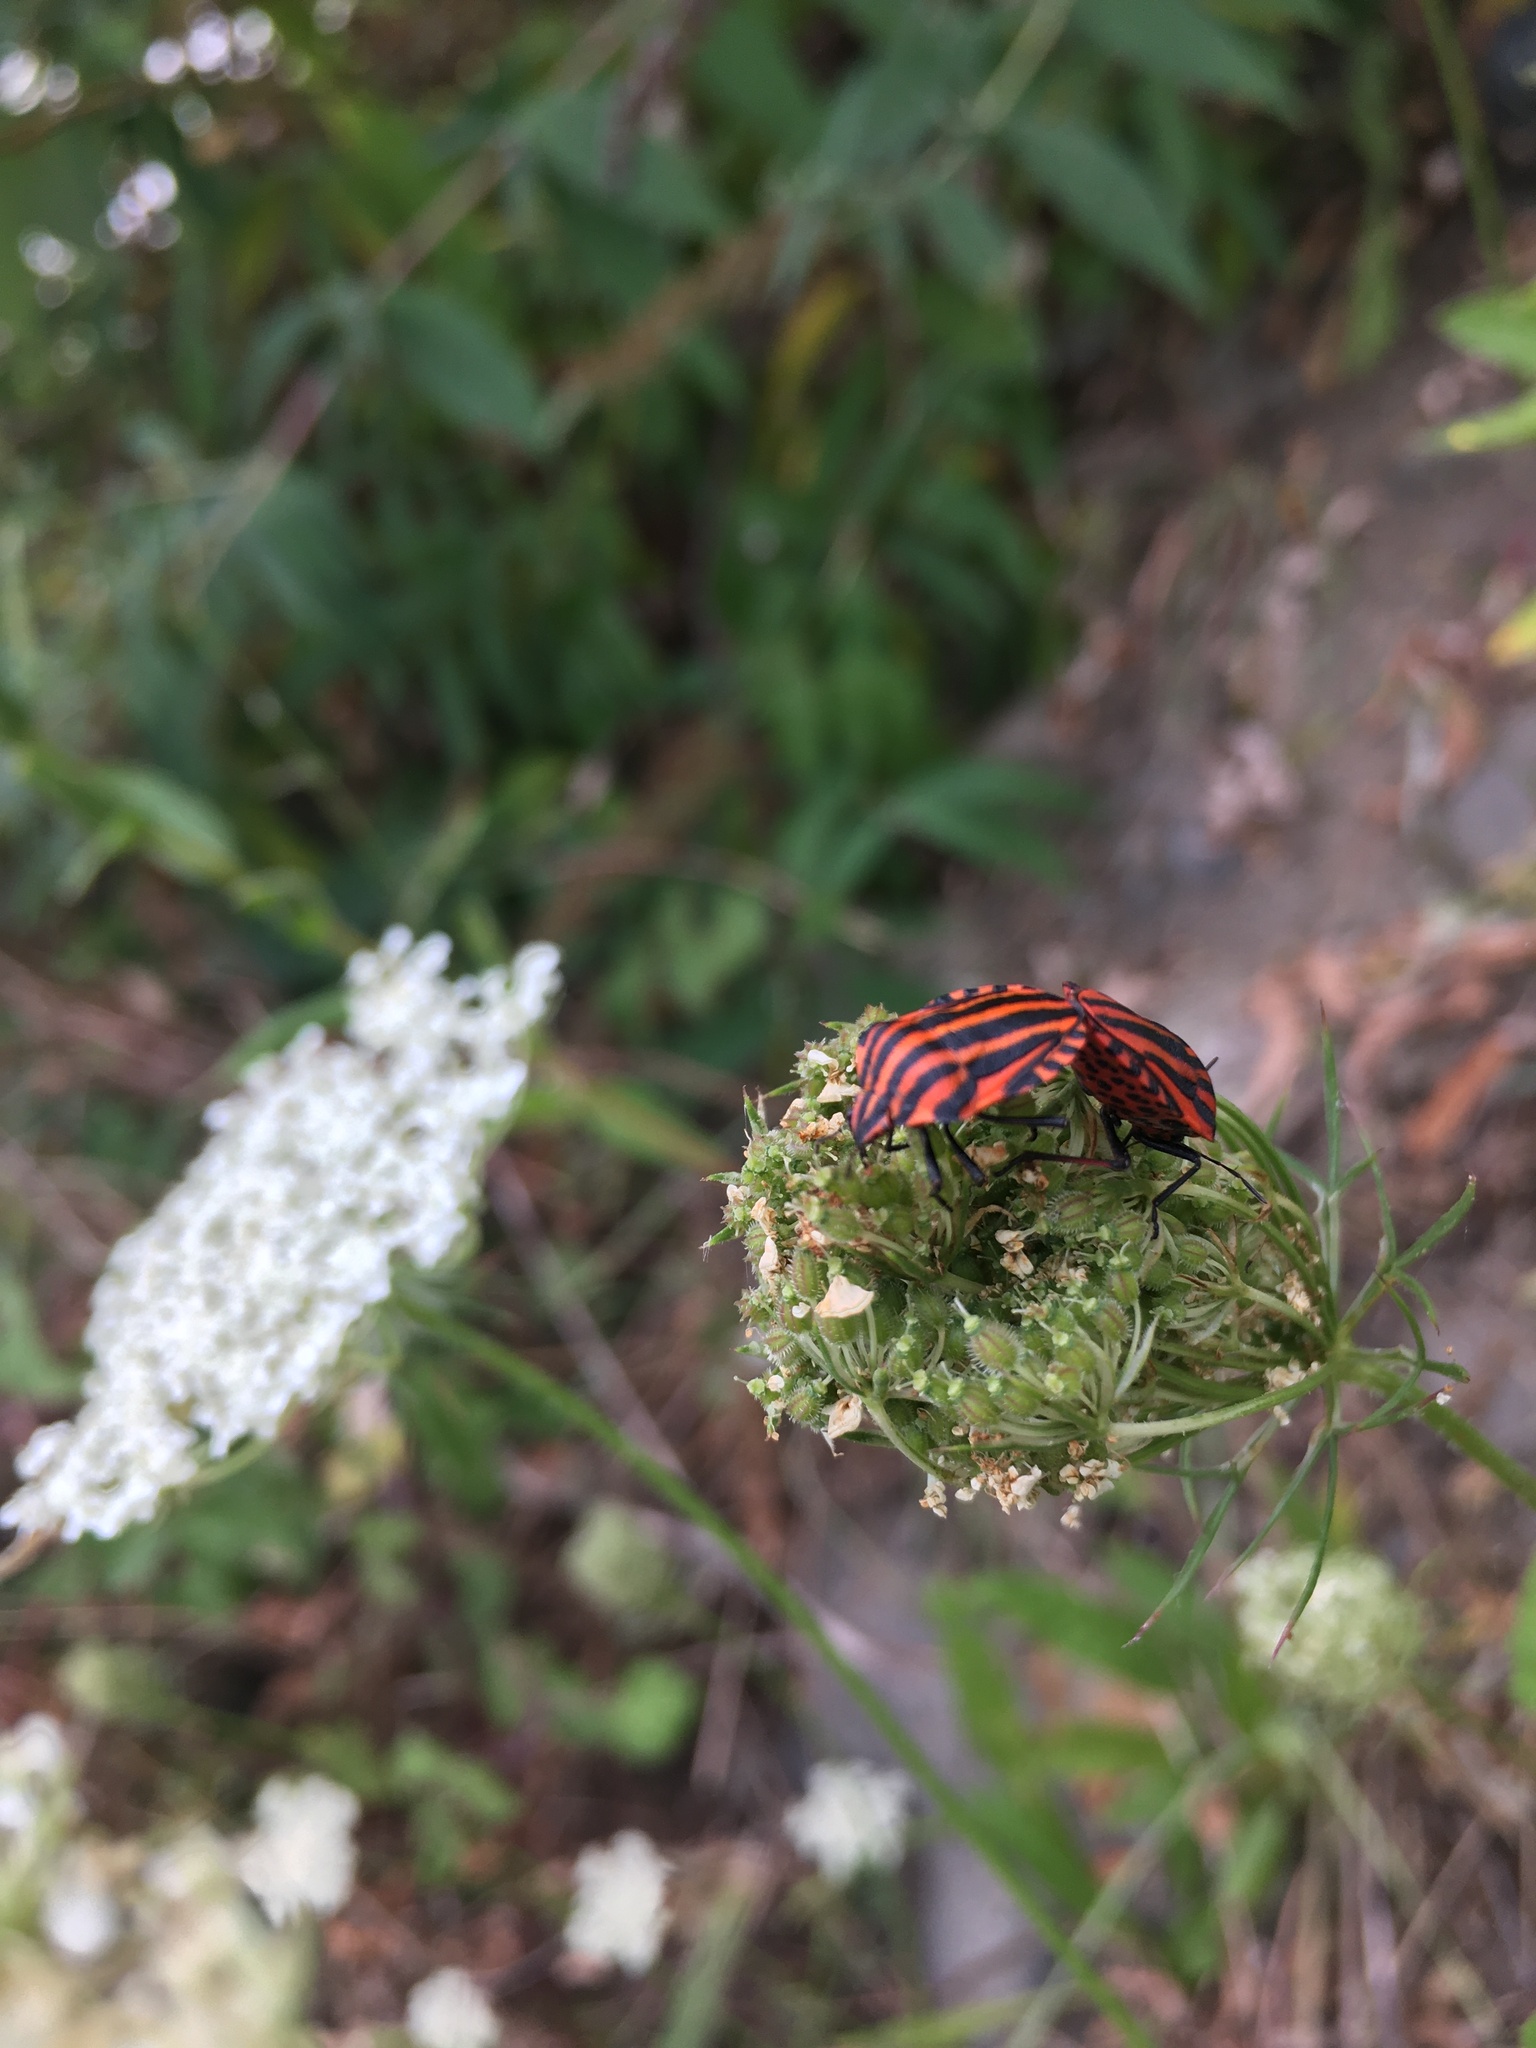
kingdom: Animalia
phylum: Arthropoda
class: Insecta
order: Hemiptera
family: Pentatomidae
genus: Graphosoma
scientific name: Graphosoma italicum
